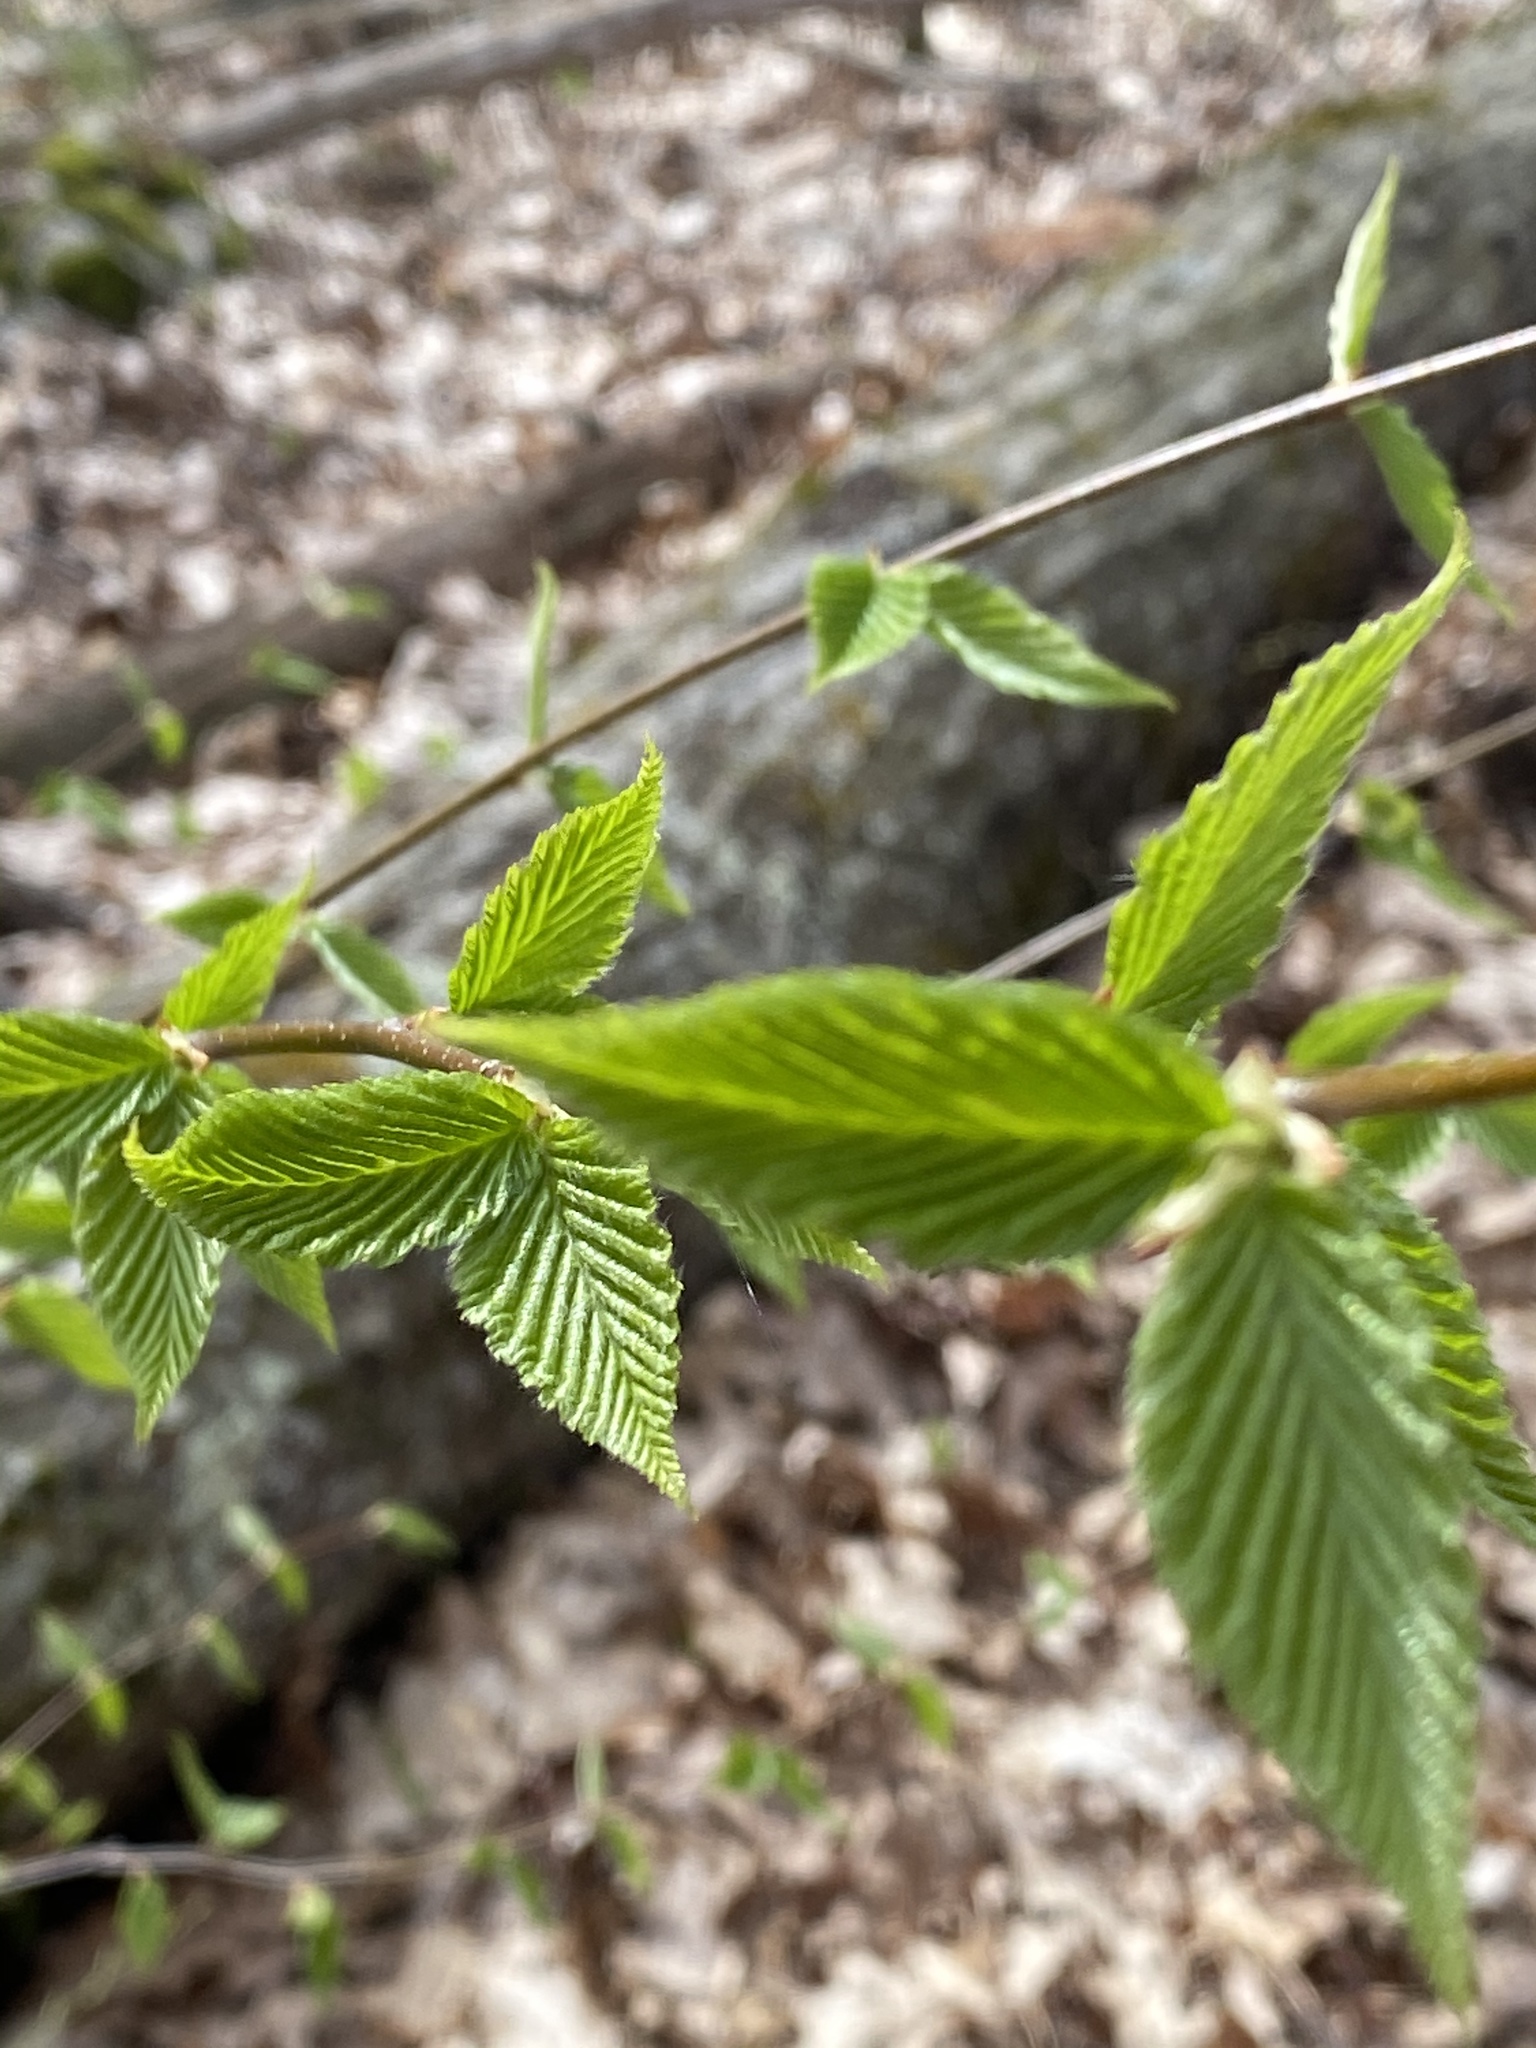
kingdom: Plantae
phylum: Tracheophyta
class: Magnoliopsida
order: Fagales
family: Betulaceae
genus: Betula
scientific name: Betula alleghaniensis
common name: Yellow birch
